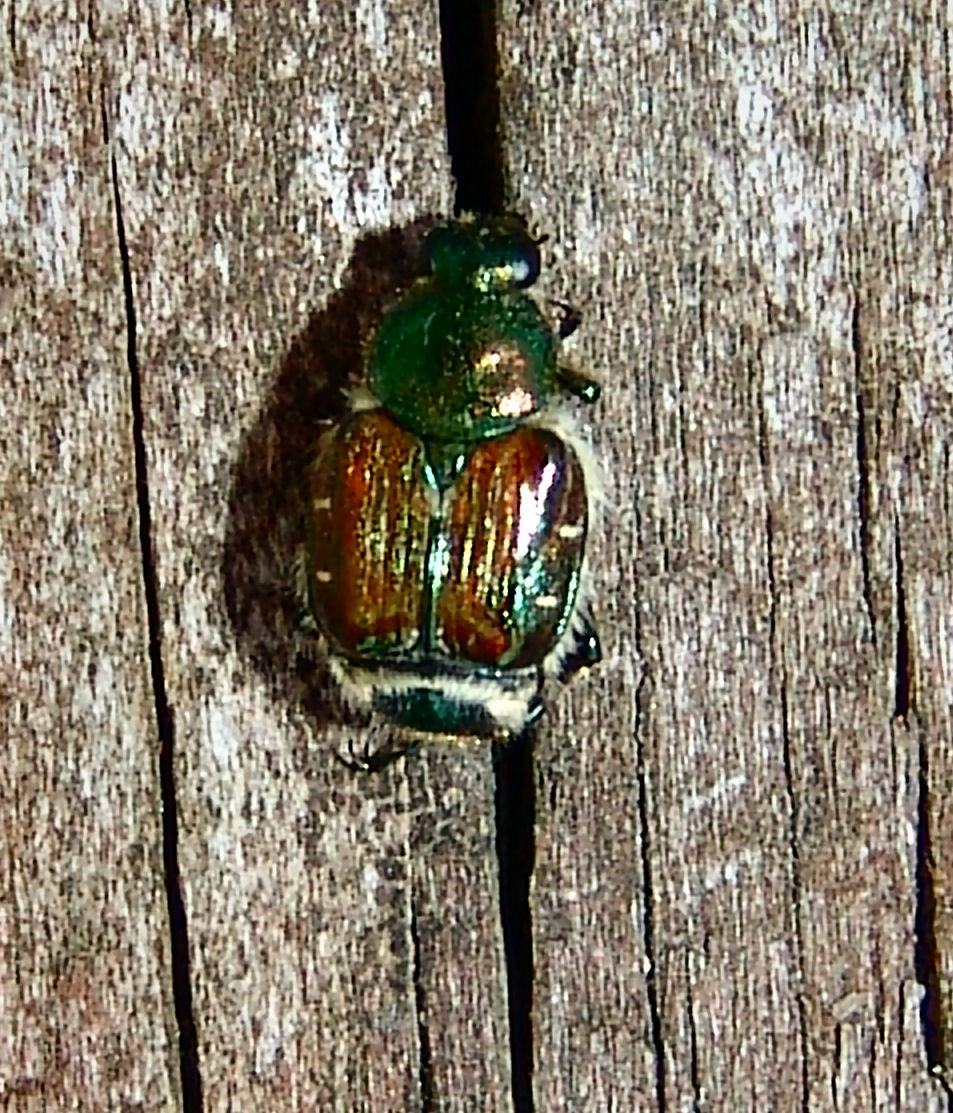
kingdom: Animalia
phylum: Arthropoda
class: Insecta
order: Coleoptera
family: Scarabaeidae
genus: Trichiotinus
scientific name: Trichiotinus lunulatus
